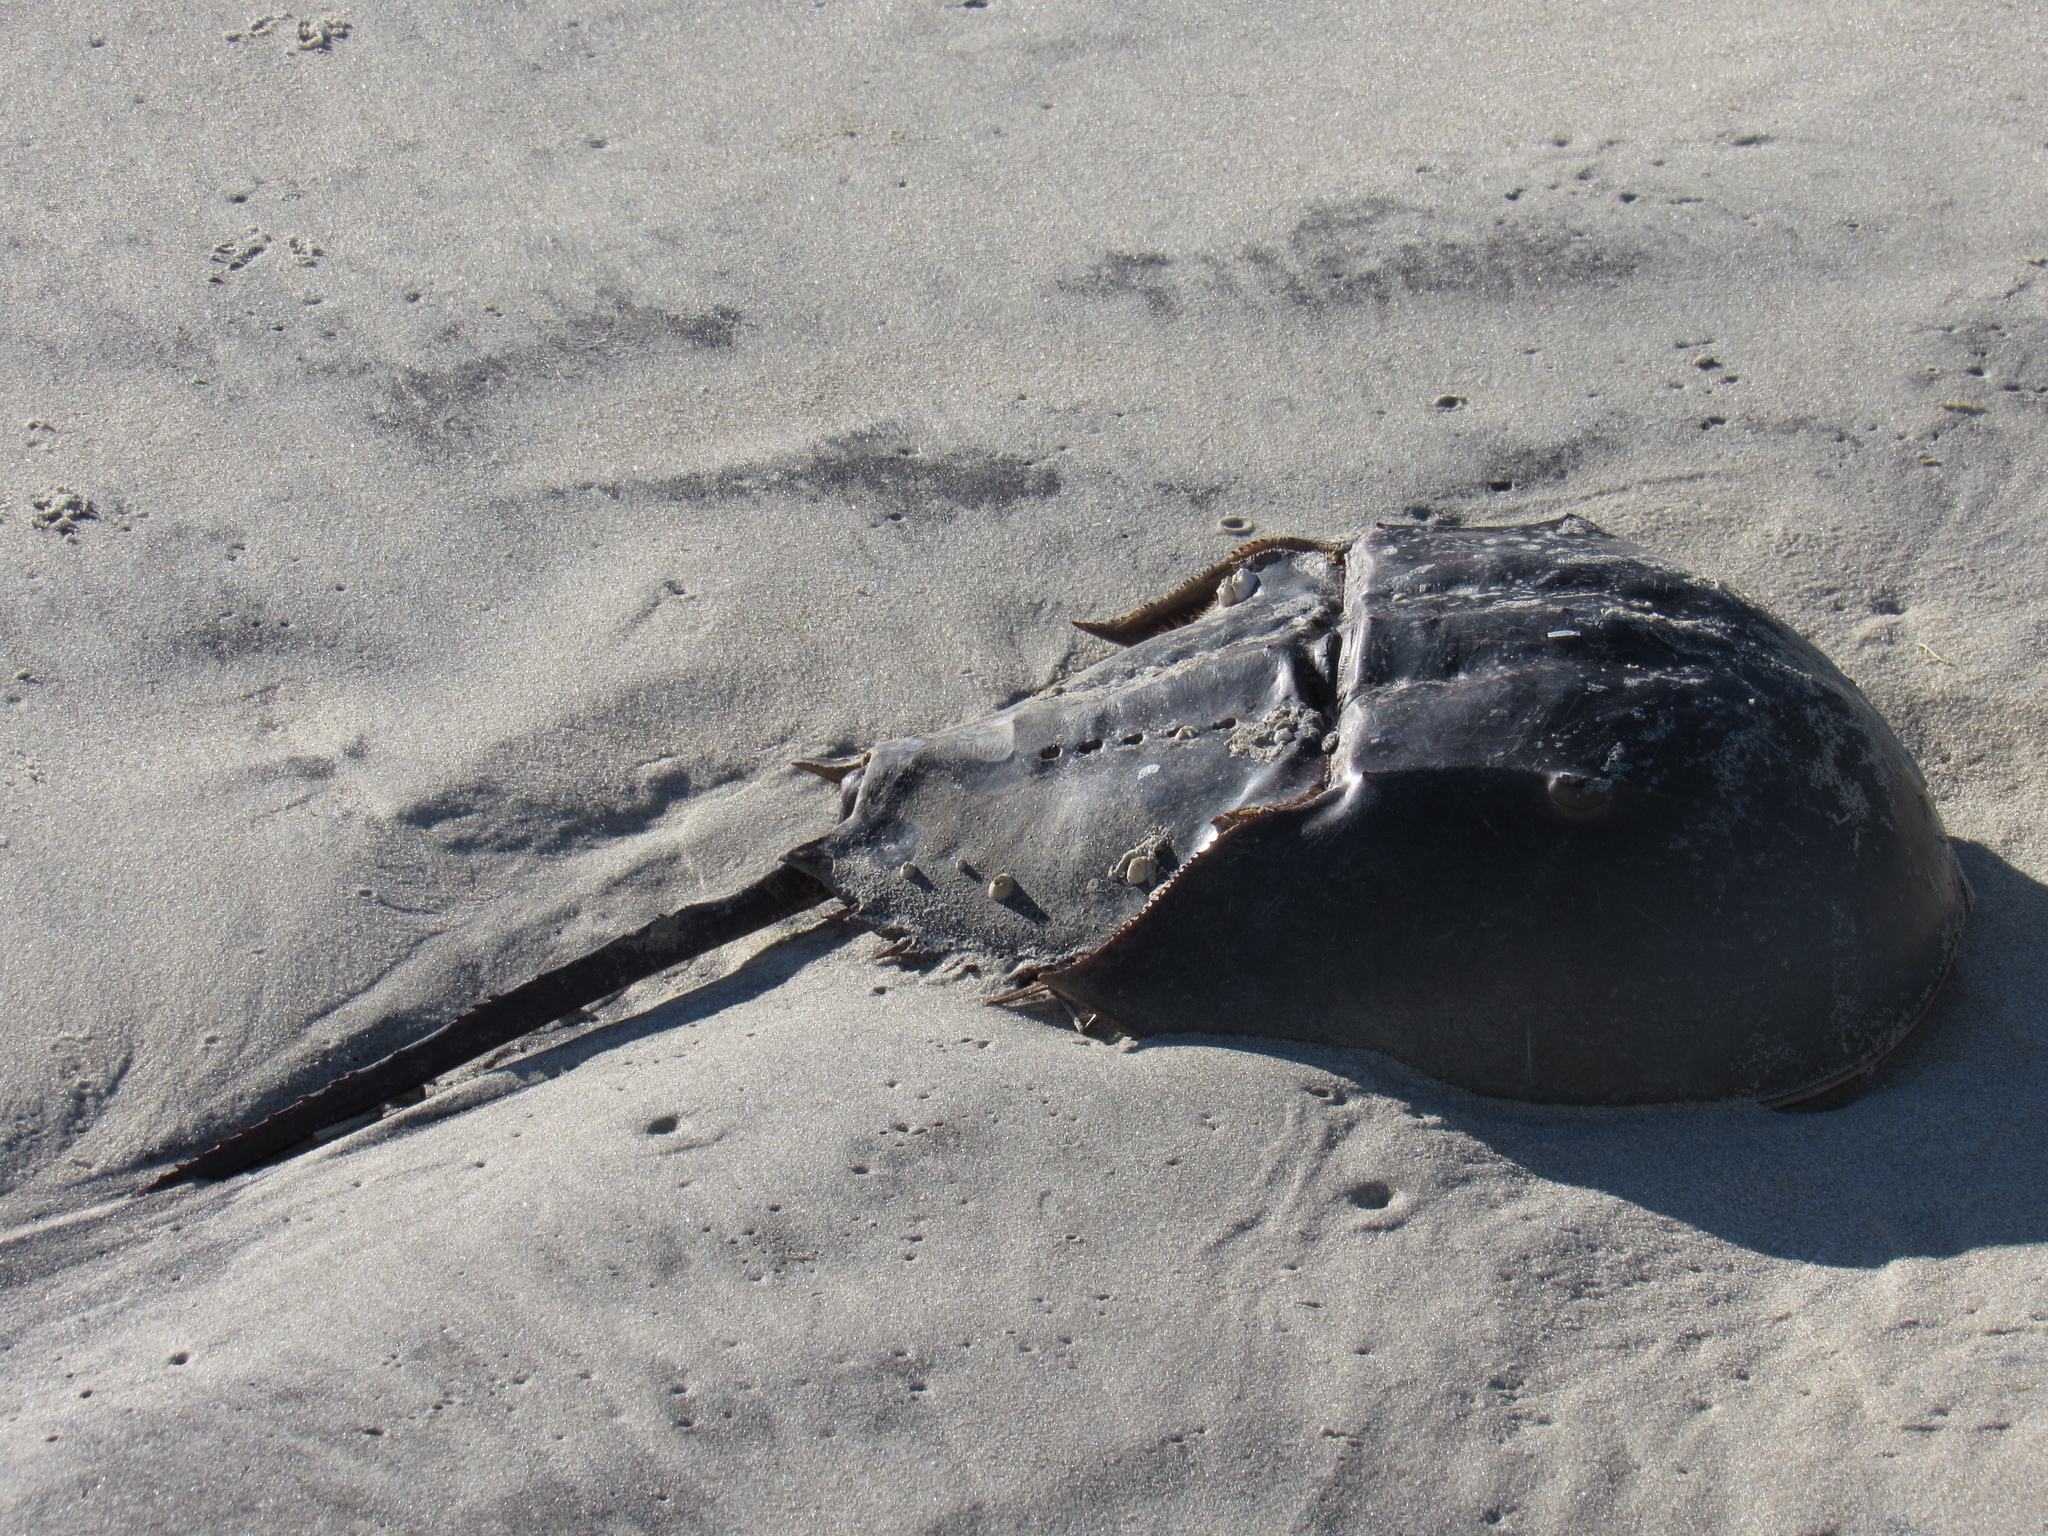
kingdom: Animalia
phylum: Arthropoda
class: Merostomata
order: Xiphosurida
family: Limulidae
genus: Limulus
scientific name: Limulus polyphemus
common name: Horseshoe crab
